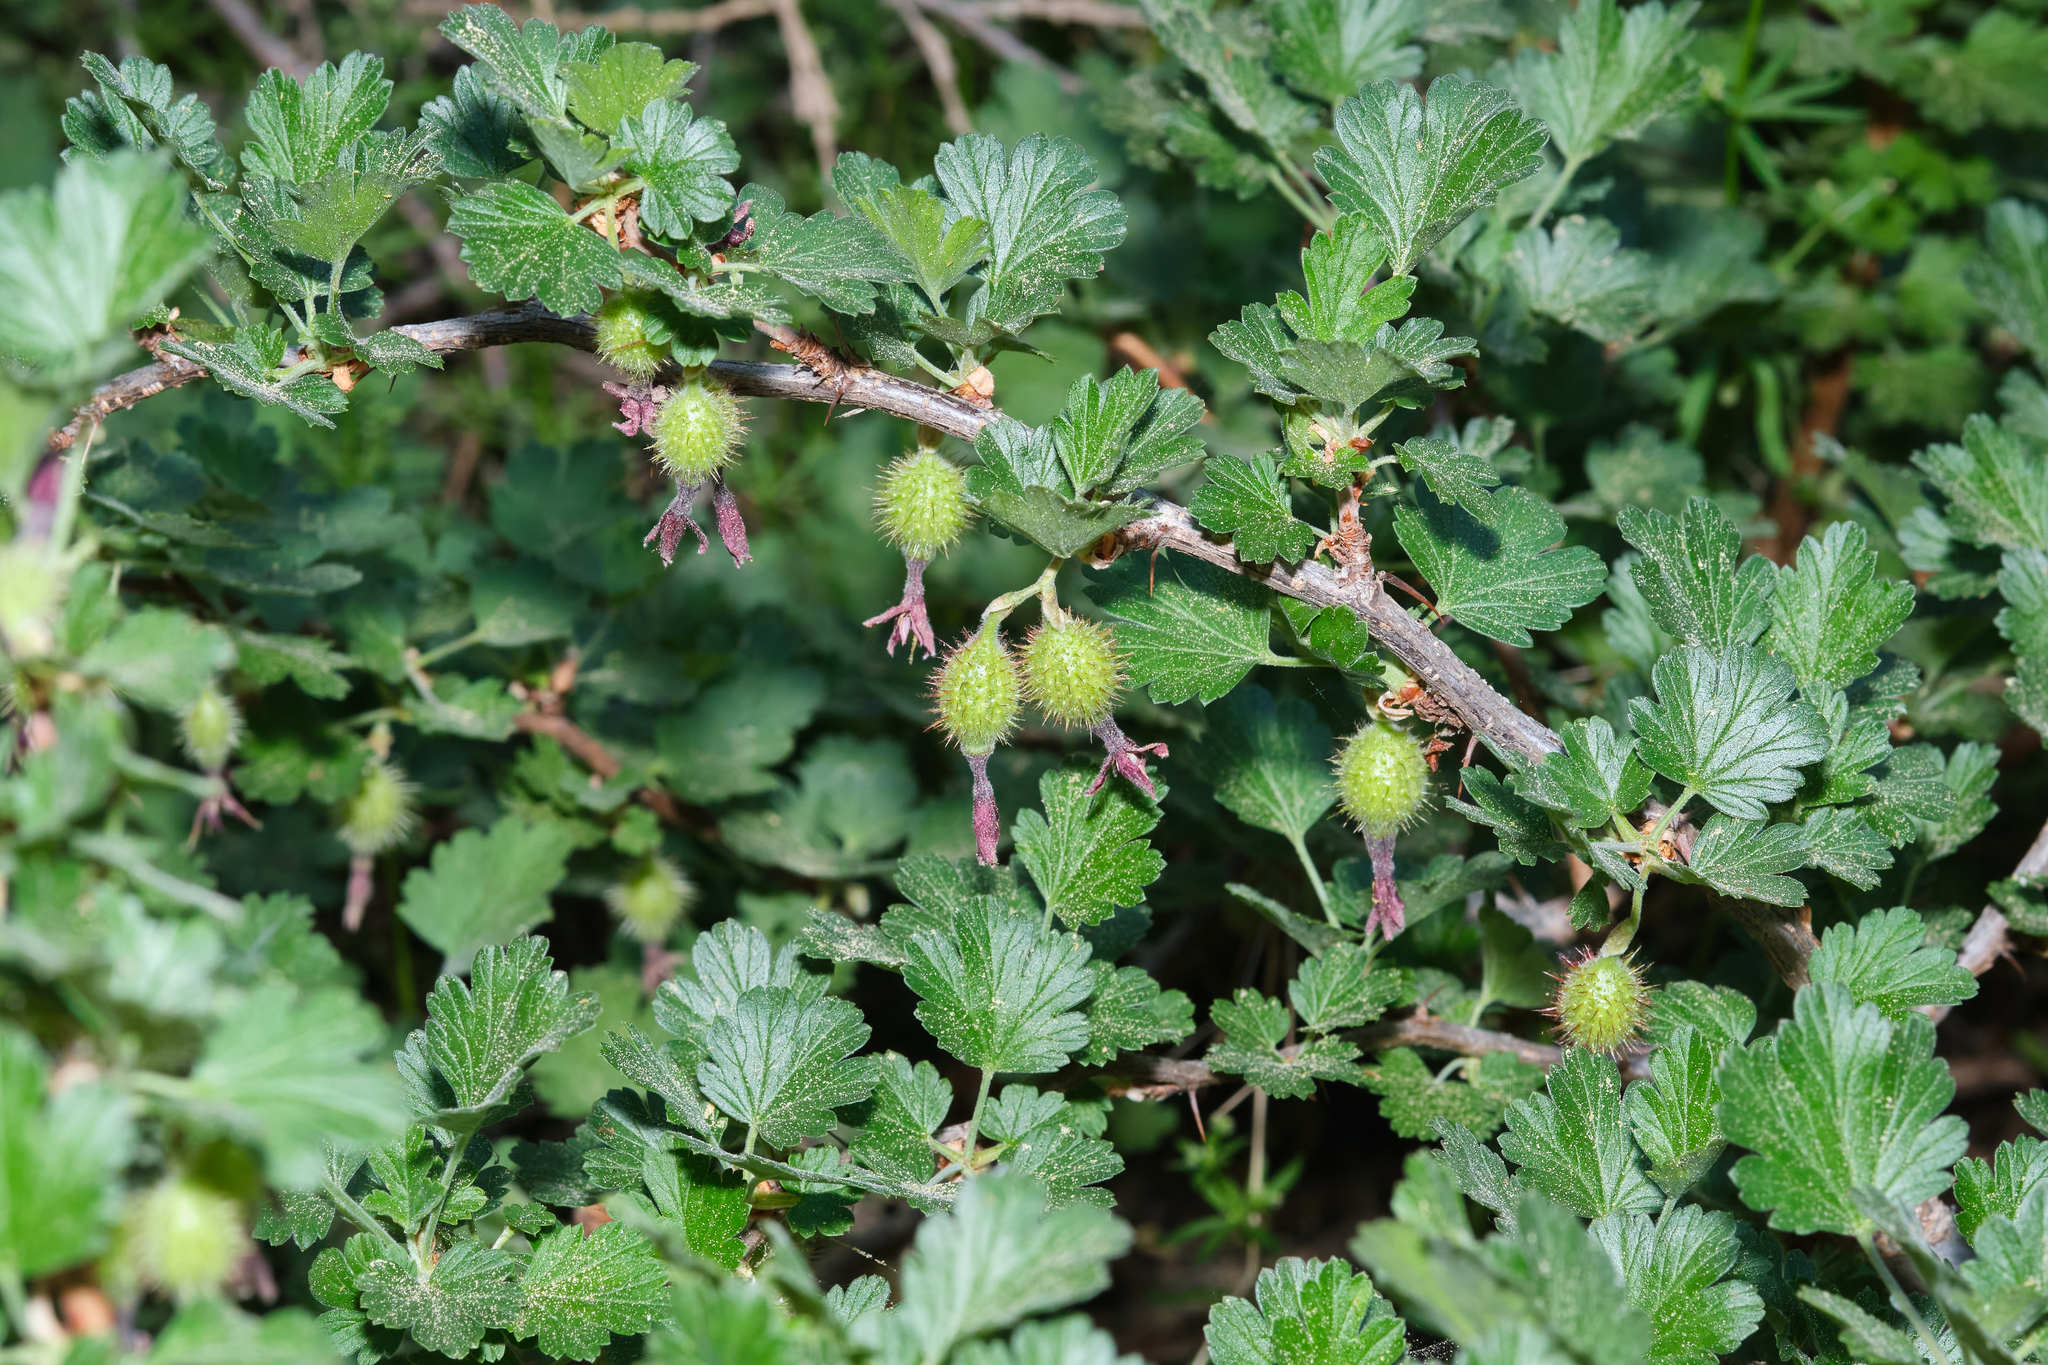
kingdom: Plantae
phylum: Tracheophyta
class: Magnoliopsida
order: Saxifragales
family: Grossulariaceae
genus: Ribes
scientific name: Ribes roezlii
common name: Sierra gooseberry
